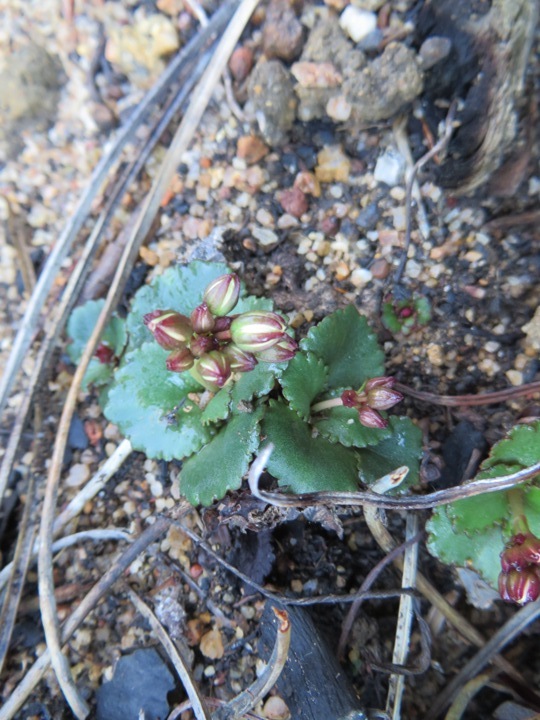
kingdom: Plantae
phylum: Tracheophyta
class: Magnoliopsida
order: Saxifragales
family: Crassulaceae
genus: Crassula
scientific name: Crassula capensis
